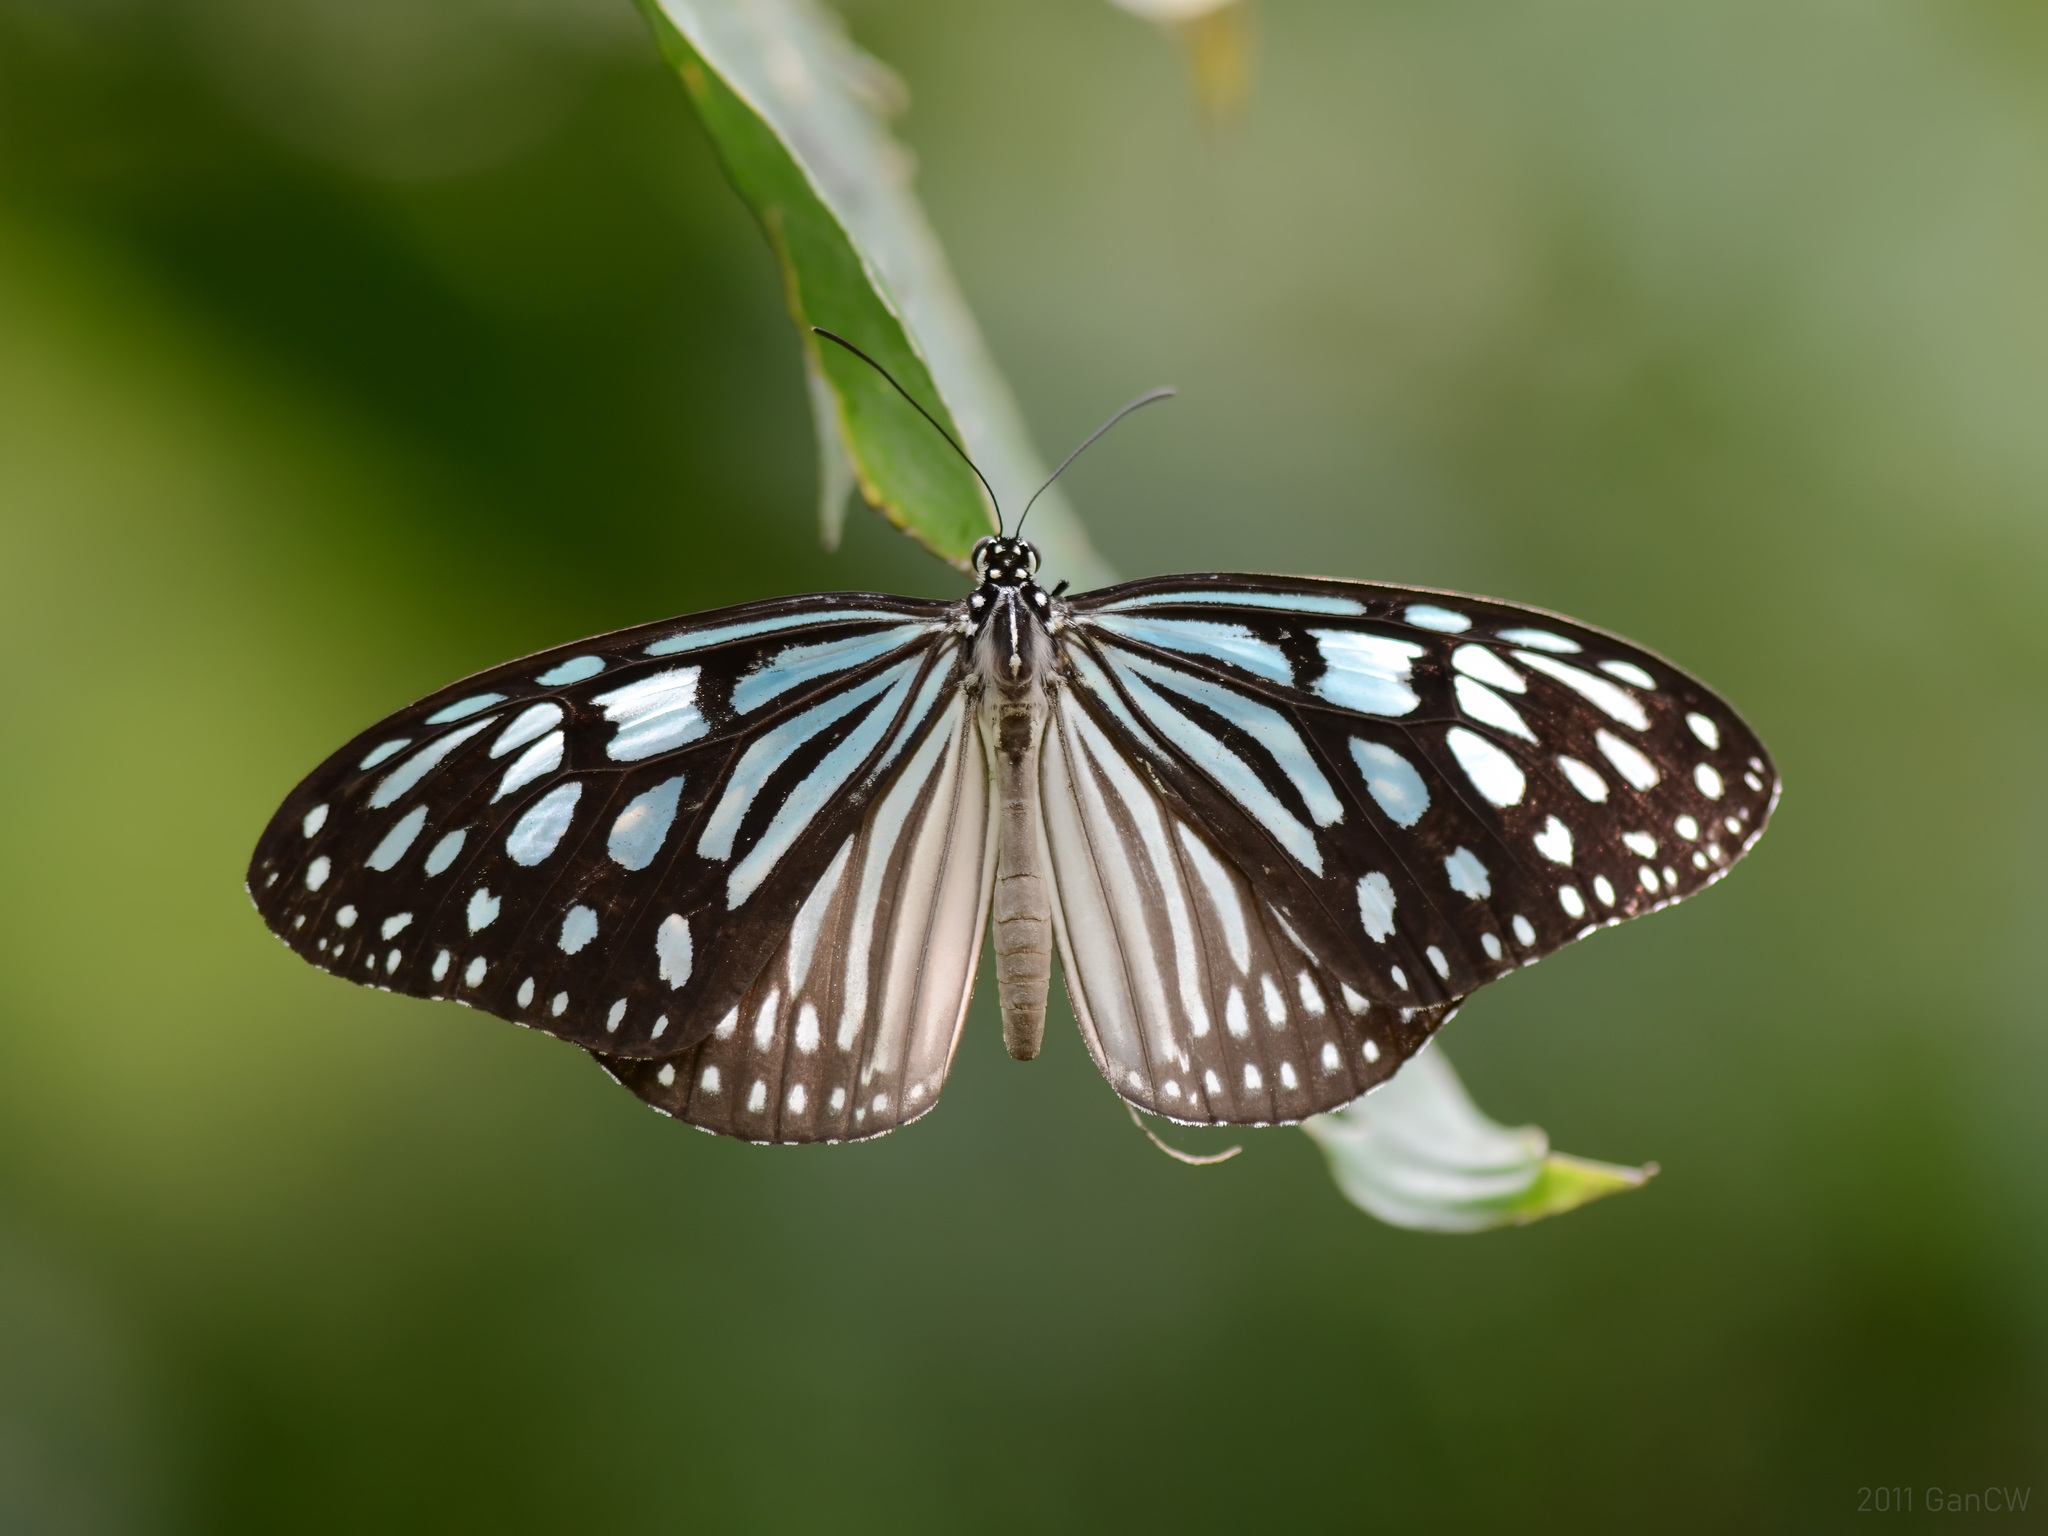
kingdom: Animalia
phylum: Arthropoda
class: Insecta
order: Lepidoptera
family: Nymphalidae
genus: Ideopsis
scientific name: Ideopsis similis
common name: Ceylon blue glassy tiger
